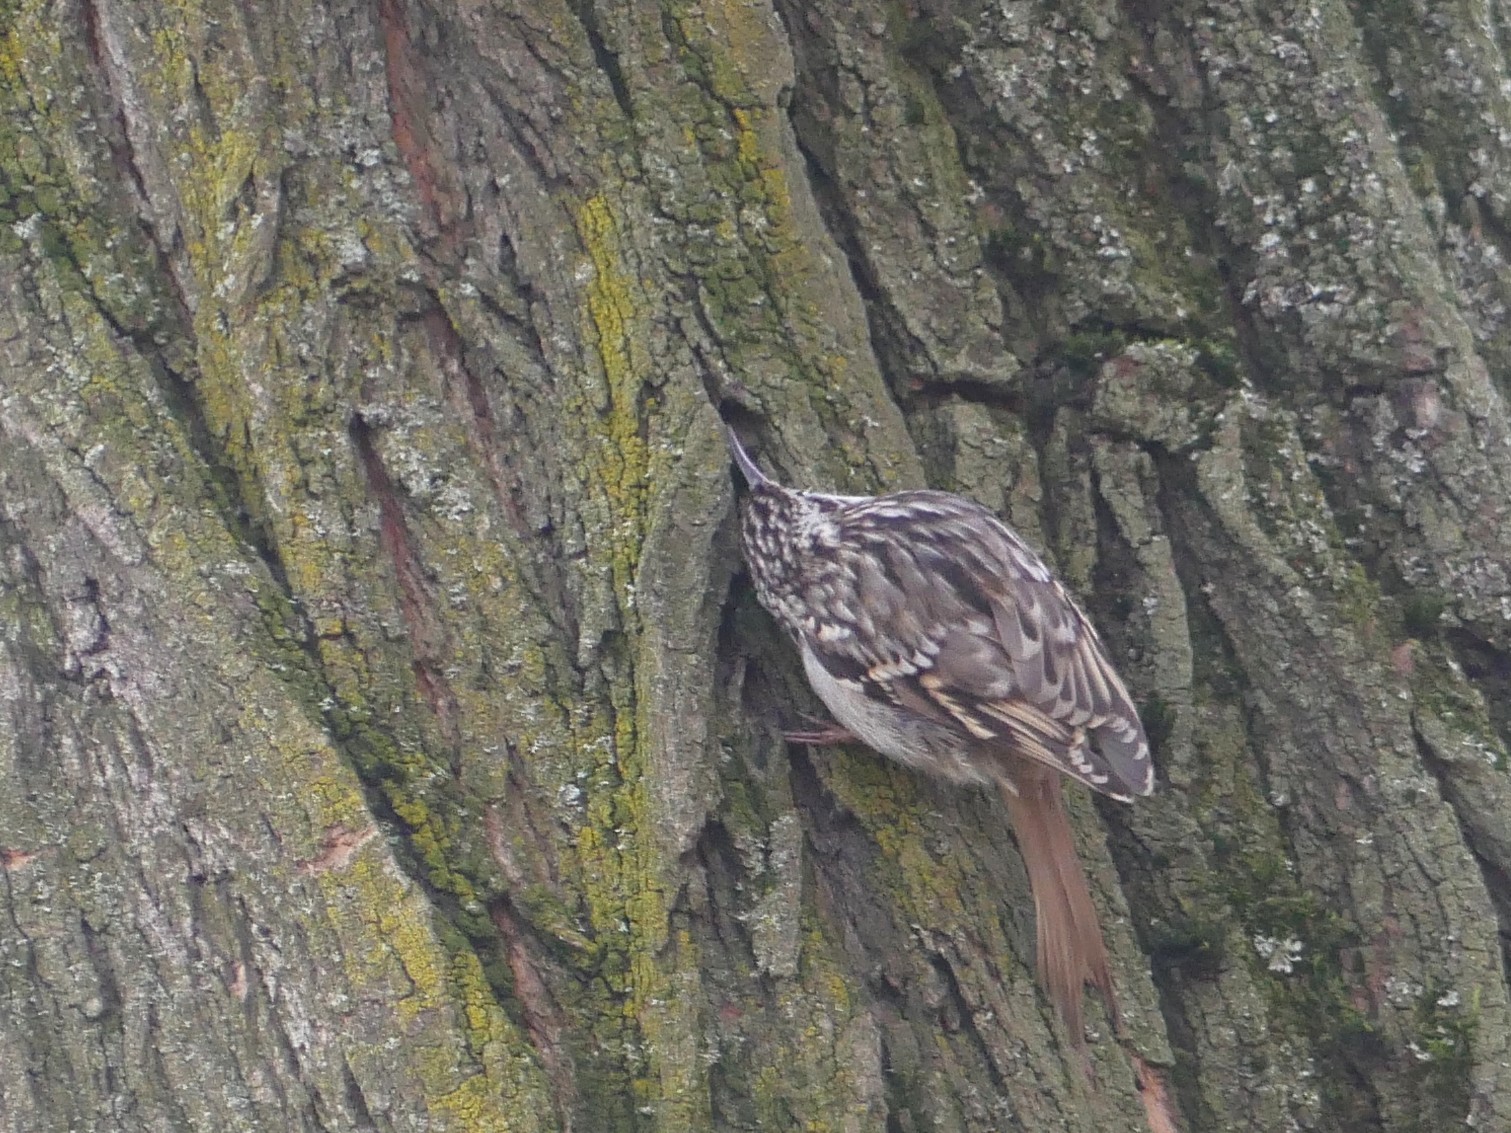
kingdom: Animalia
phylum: Chordata
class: Aves
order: Passeriformes
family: Certhiidae
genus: Certhia
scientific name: Certhia brachydactyla
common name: Short-toed treecreeper
